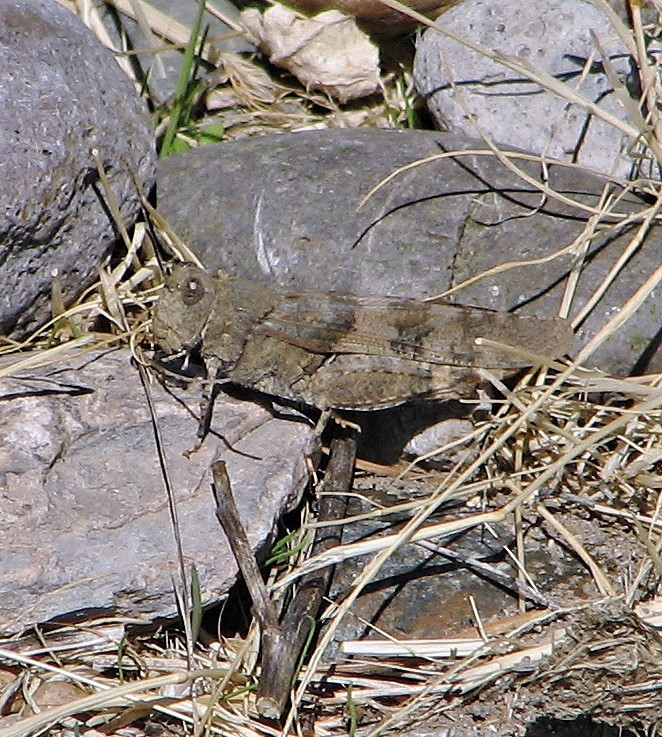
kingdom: Animalia
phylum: Arthropoda
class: Insecta
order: Orthoptera
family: Acrididae
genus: Trimerotropis
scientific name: Trimerotropis pallidipennis
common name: Pallid-winged grasshopper
